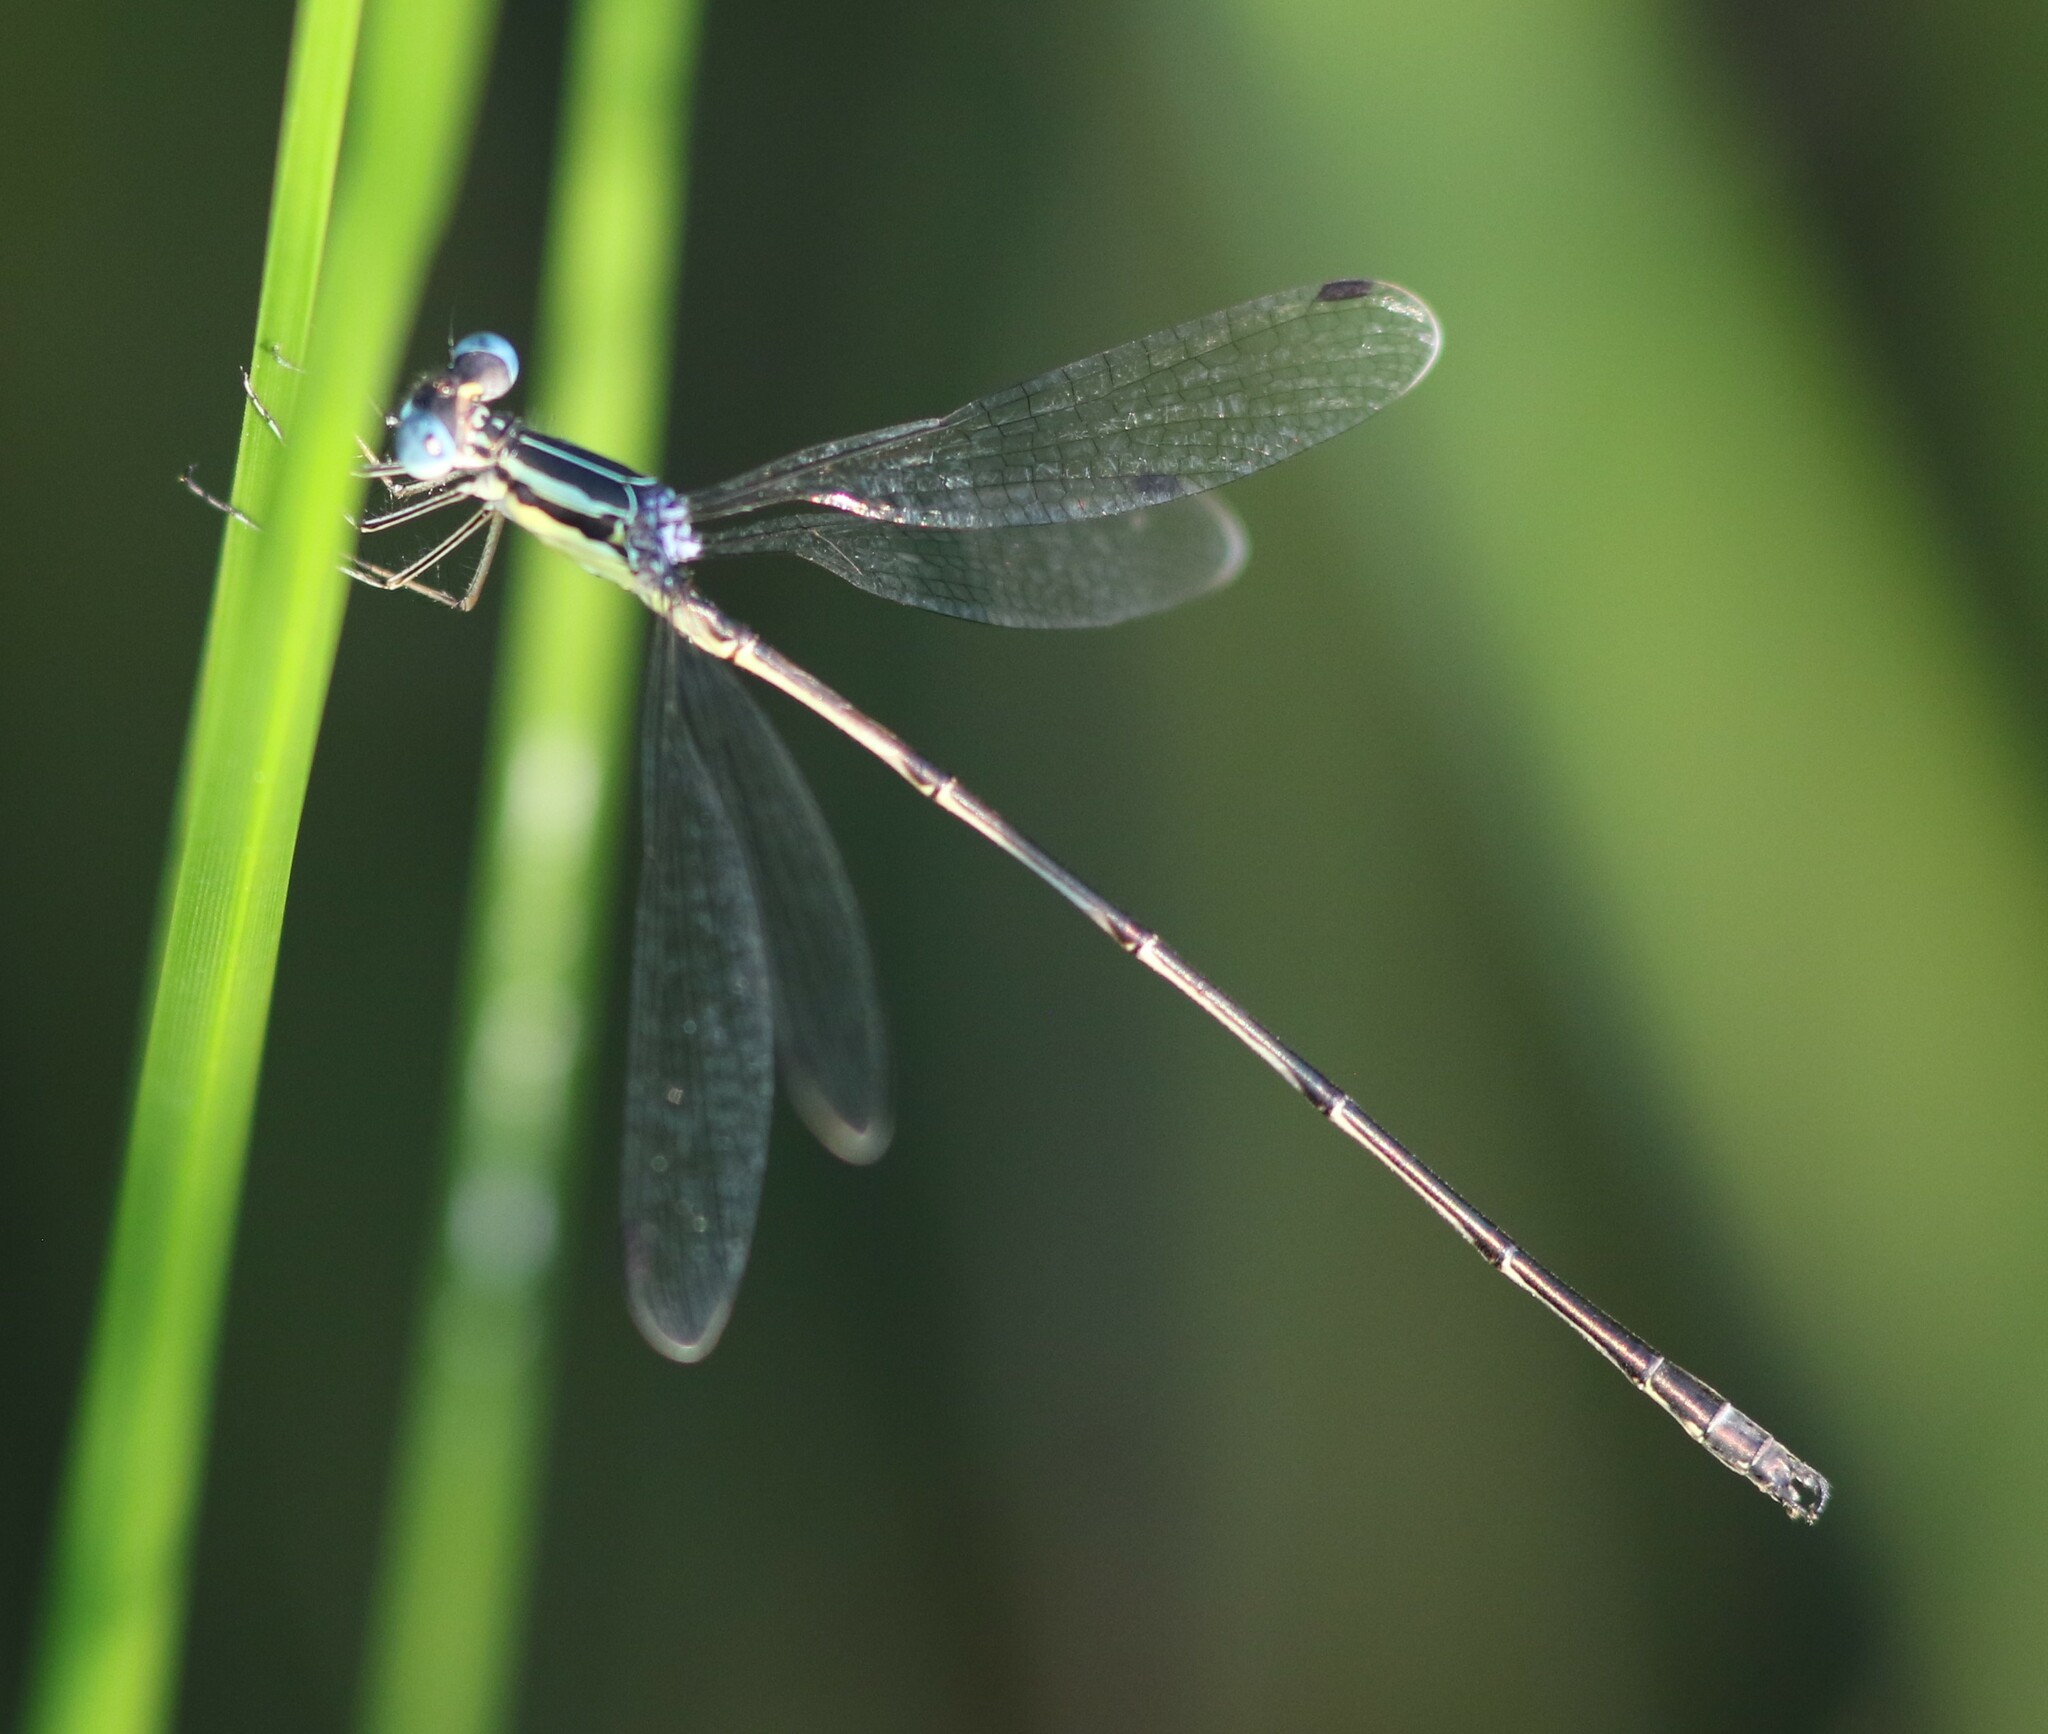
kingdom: Animalia
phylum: Arthropoda
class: Insecta
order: Odonata
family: Lestidae
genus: Lestes
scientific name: Lestes rectangularis
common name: Slender spreadwing
